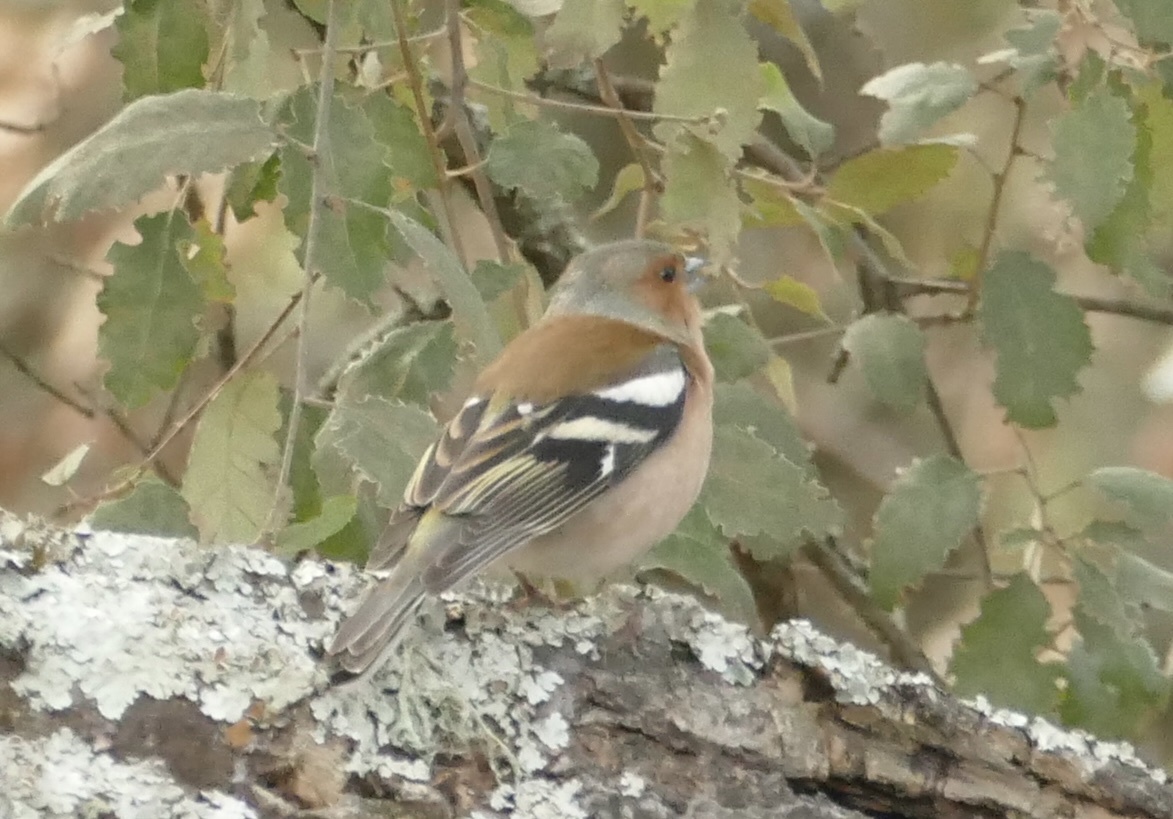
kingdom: Animalia
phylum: Chordata
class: Aves
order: Passeriformes
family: Fringillidae
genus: Fringilla
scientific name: Fringilla coelebs
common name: Common chaffinch
